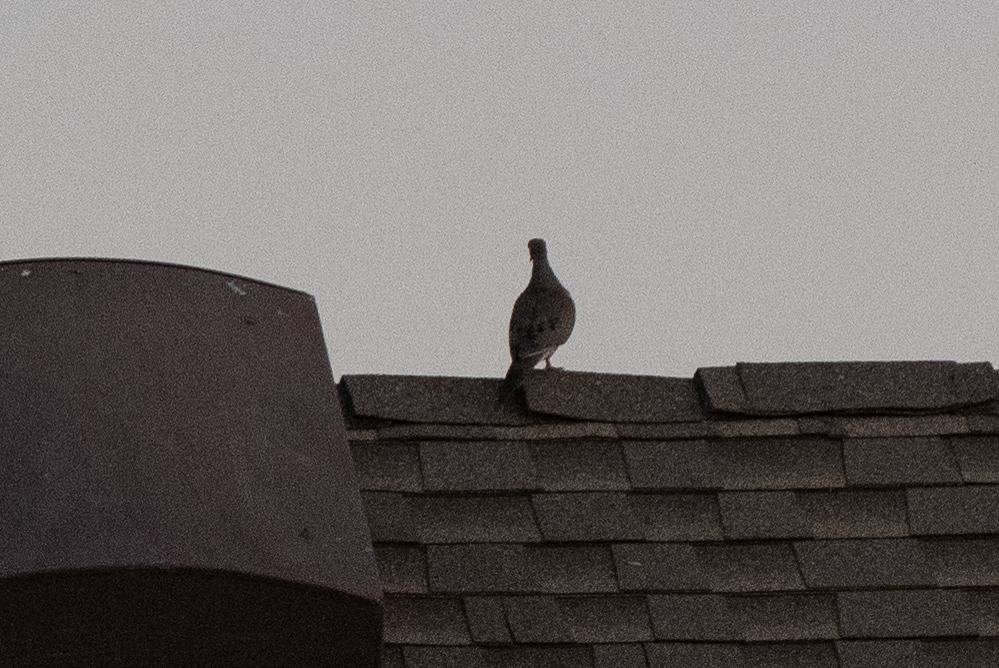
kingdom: Animalia
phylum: Chordata
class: Aves
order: Columbiformes
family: Columbidae
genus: Zenaida
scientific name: Zenaida macroura
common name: Mourning dove
